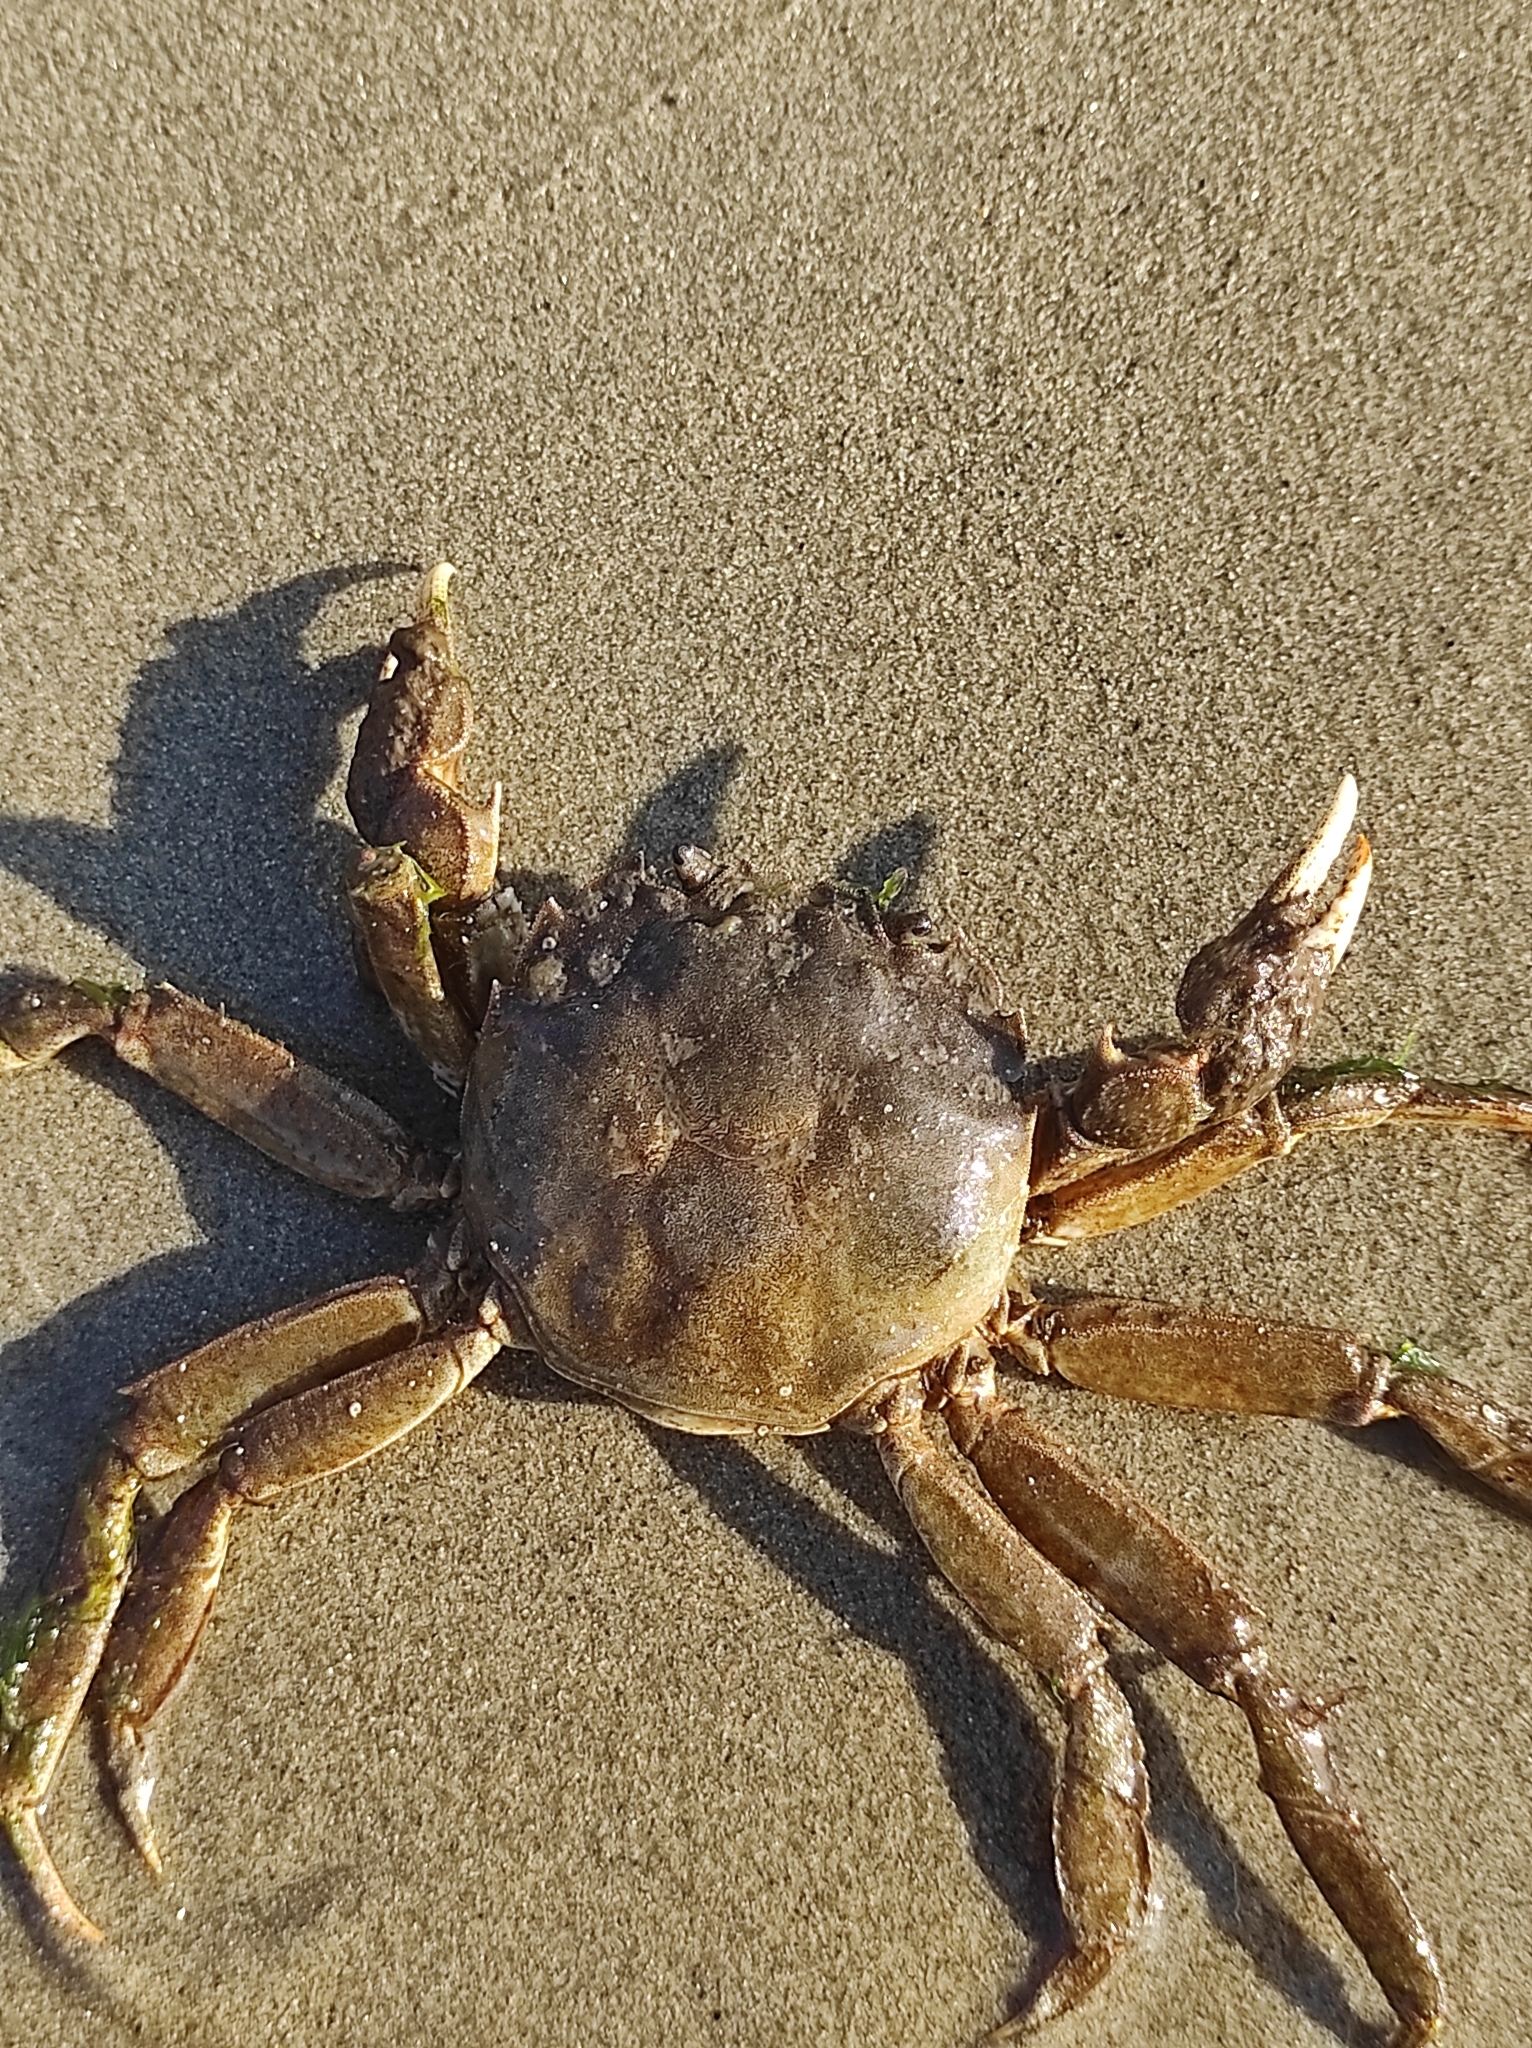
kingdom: Animalia
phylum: Arthropoda
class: Malacostraca
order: Decapoda
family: Varunidae
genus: Eriocheir
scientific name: Eriocheir japonica
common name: Japanese mitten crab
